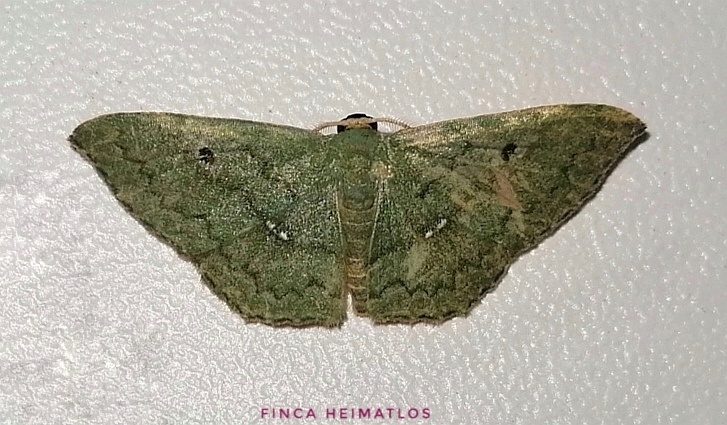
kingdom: Animalia
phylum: Arthropoda
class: Insecta
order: Lepidoptera
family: Geometridae
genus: Zalissolepis
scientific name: Zalissolepis subviolaria
